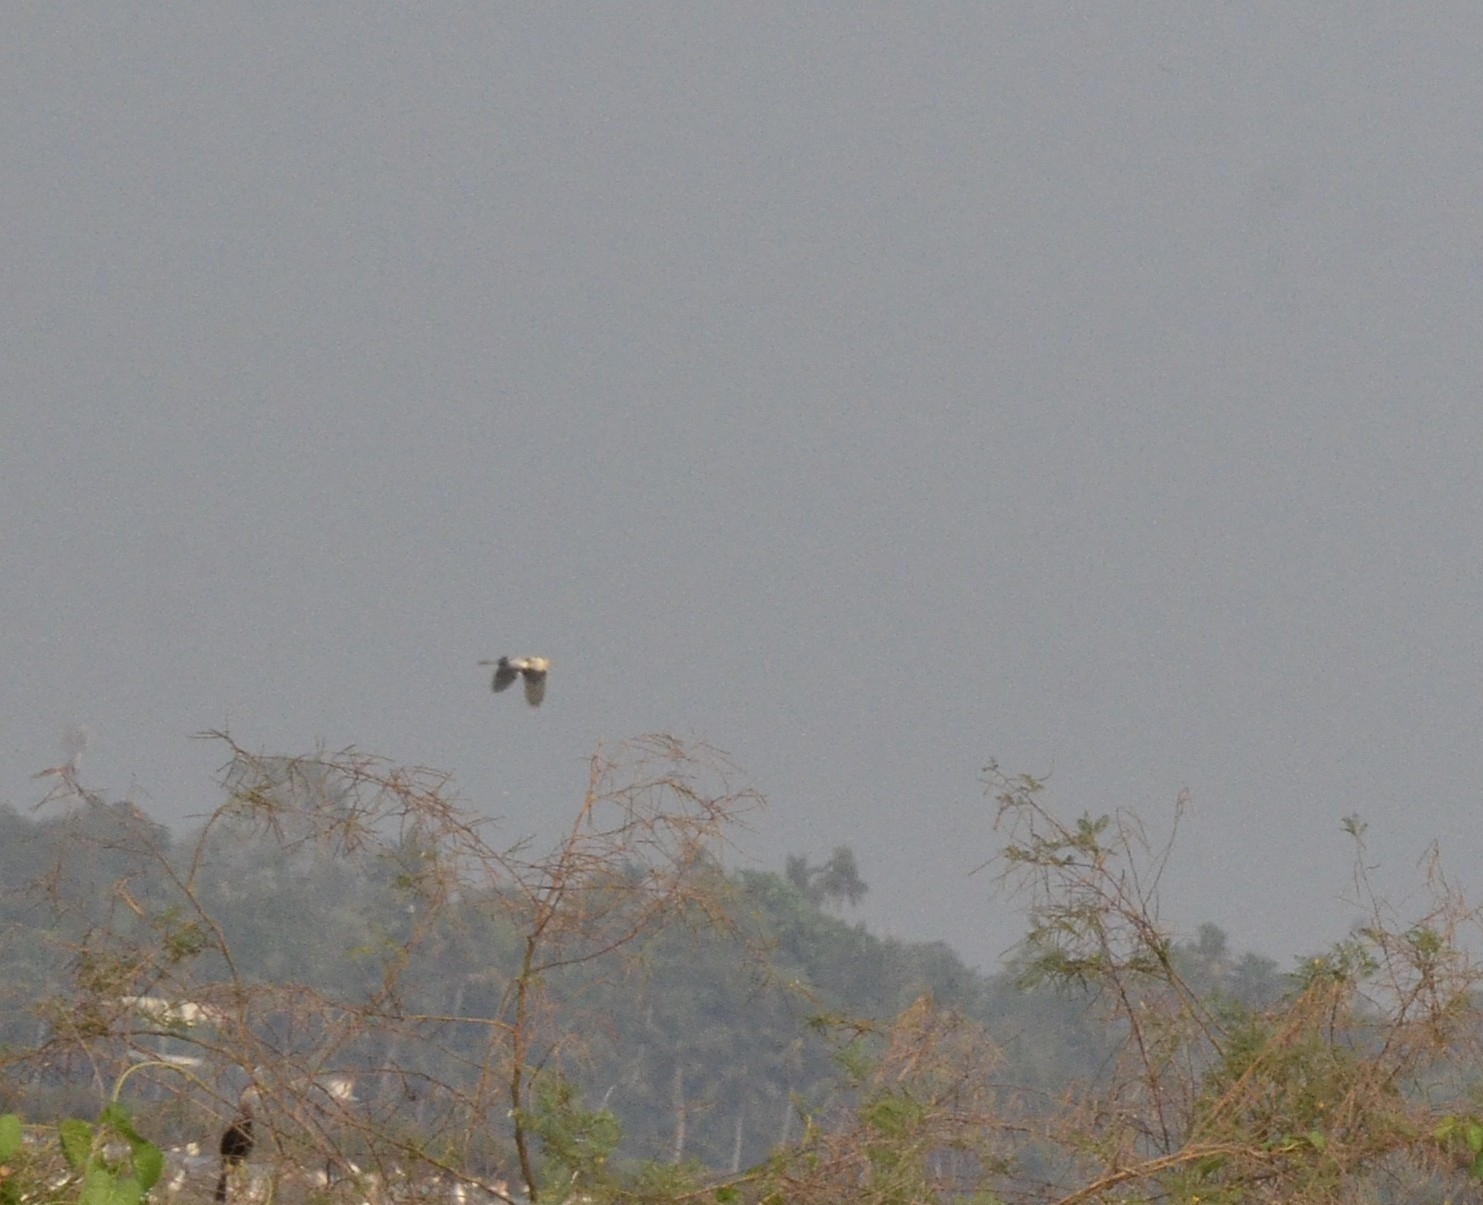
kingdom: Animalia
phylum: Chordata
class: Aves
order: Pelecaniformes
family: Ardeidae
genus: Ardea
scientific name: Ardea cinerea
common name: Grey heron
